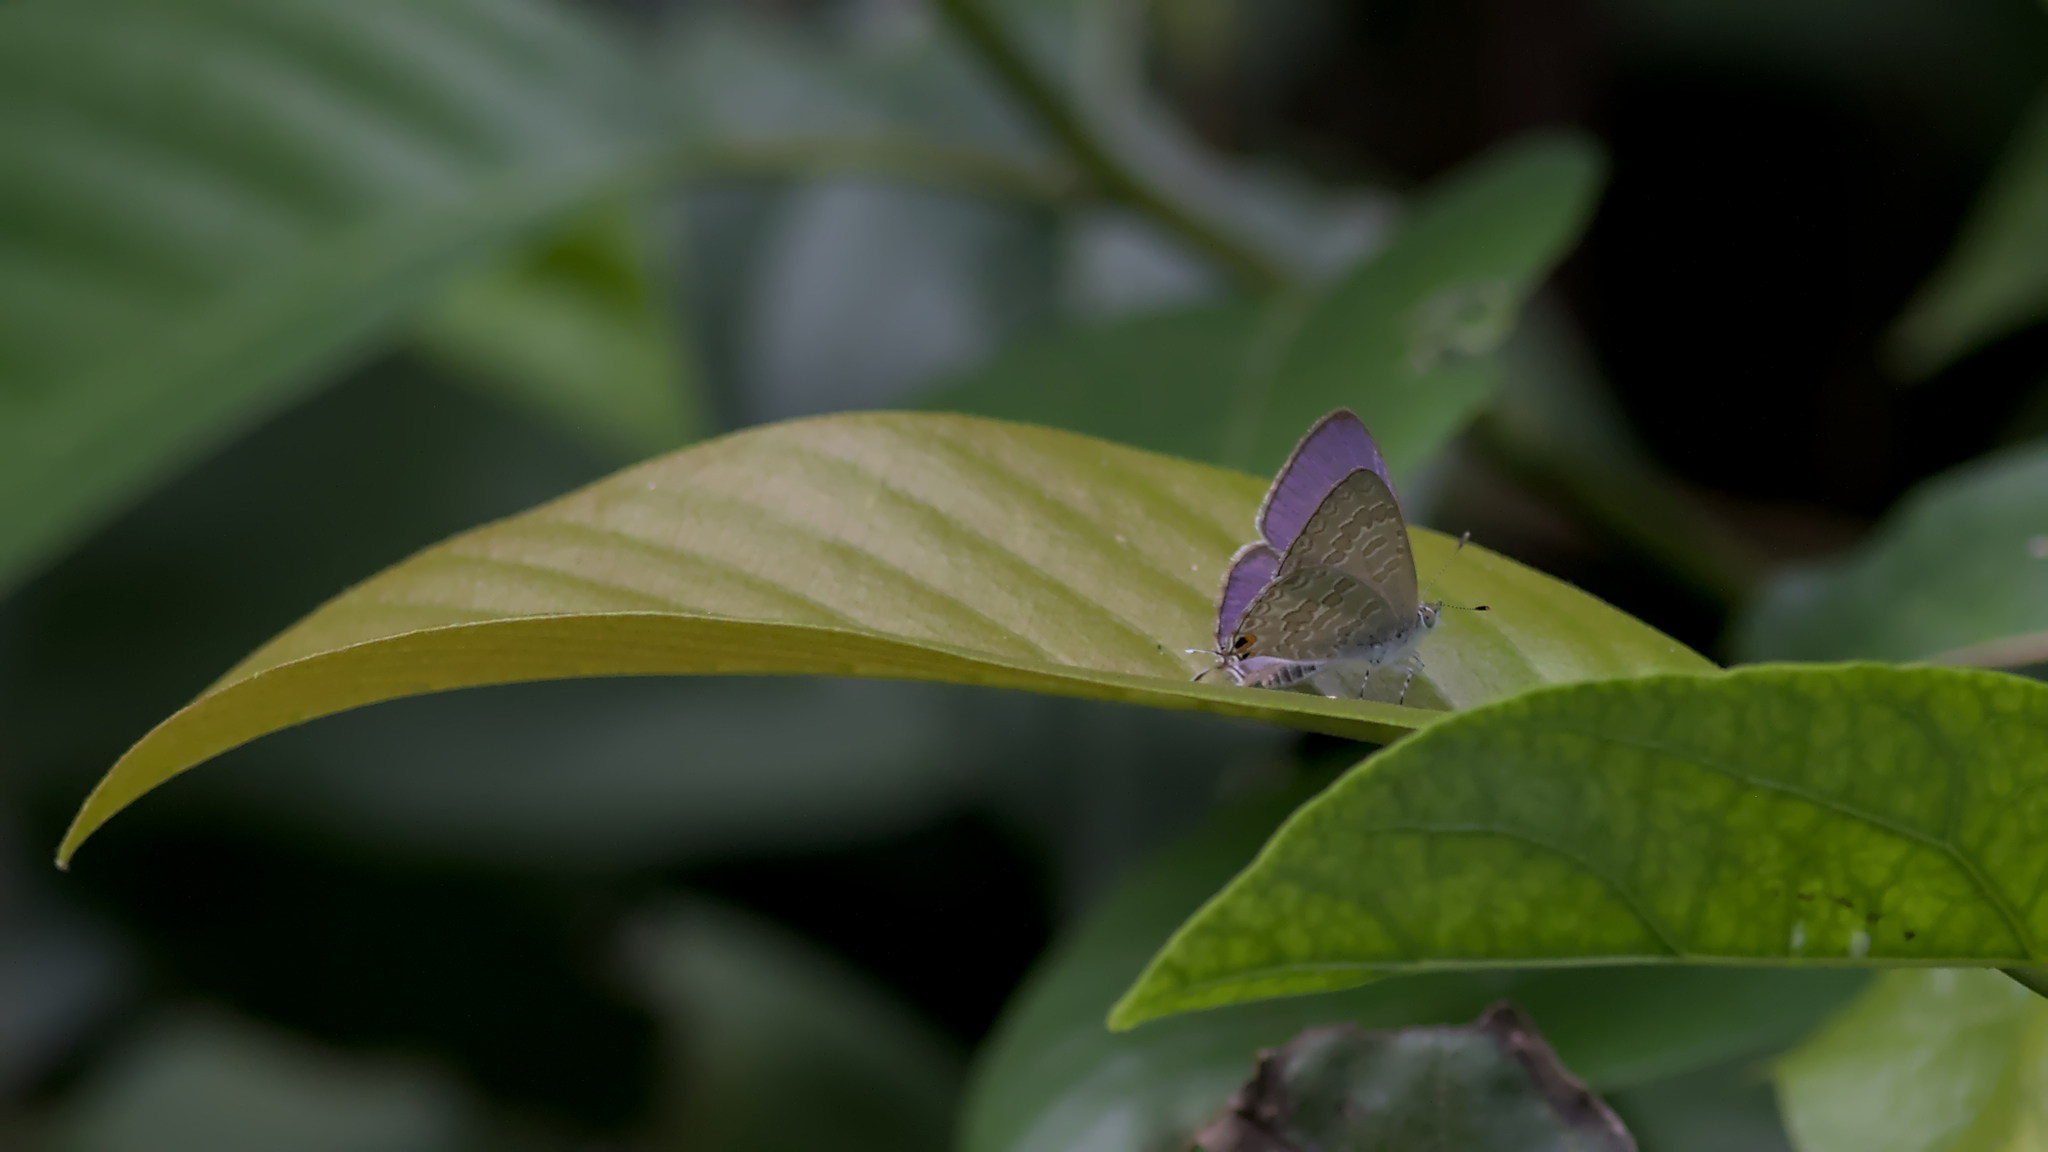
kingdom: Animalia
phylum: Arthropoda
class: Insecta
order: Lepidoptera
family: Lycaenidae
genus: Catopyrops
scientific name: Catopyrops florinda
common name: Speckled line-blue
